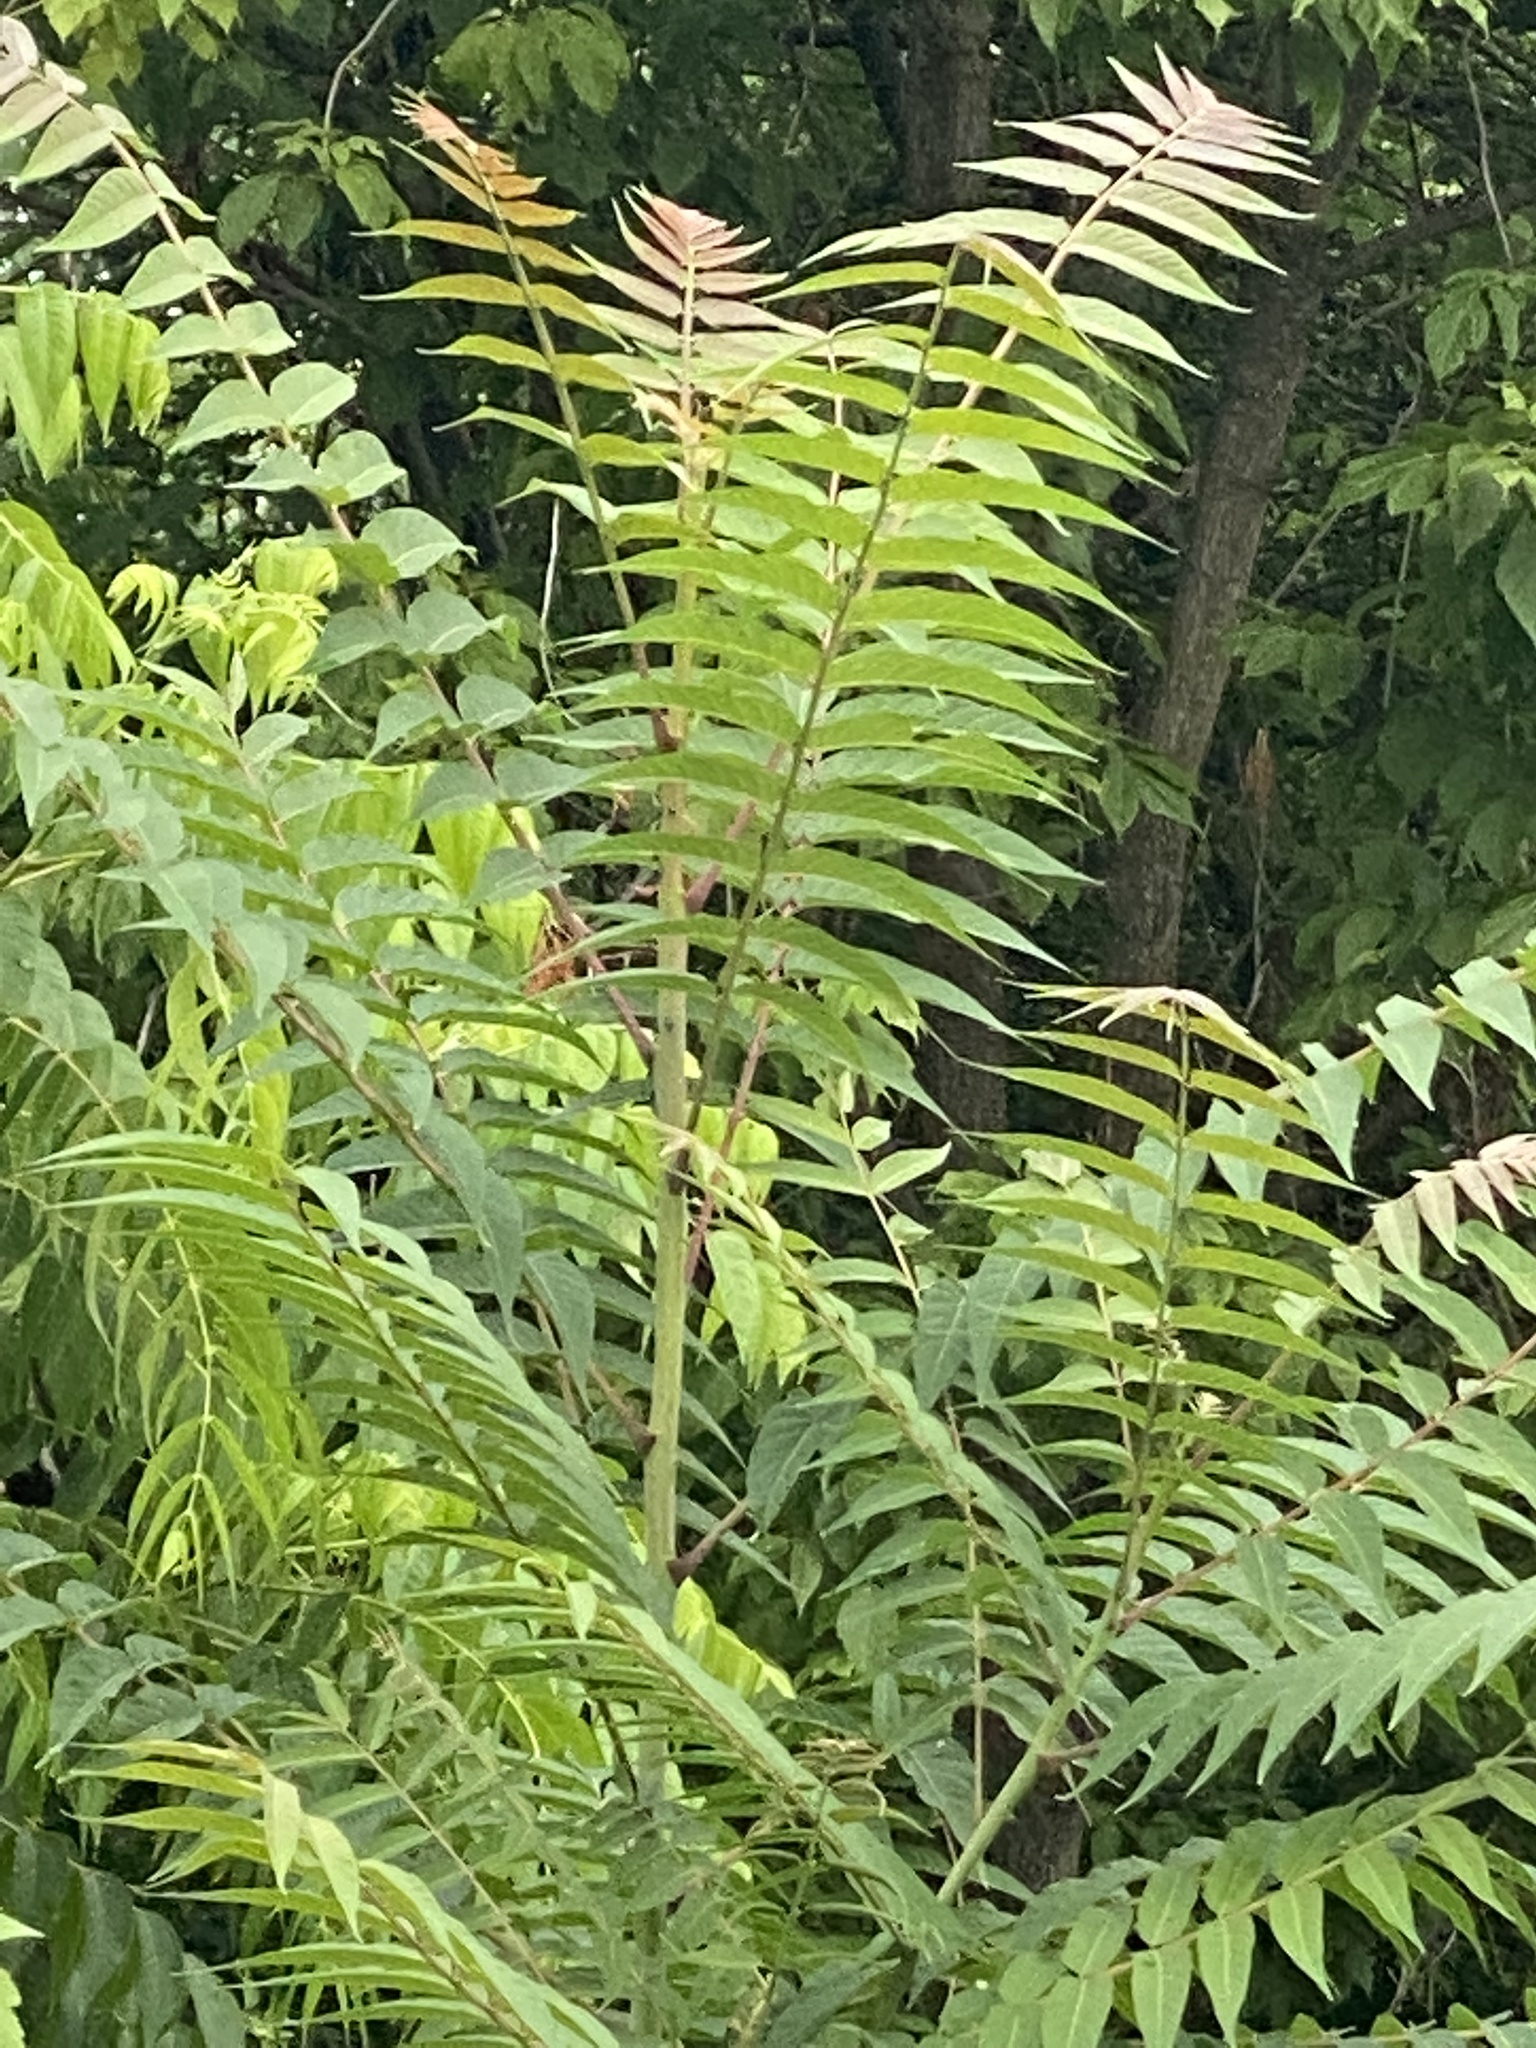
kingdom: Plantae
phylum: Tracheophyta
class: Magnoliopsida
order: Sapindales
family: Simaroubaceae
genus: Ailanthus
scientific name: Ailanthus altissima
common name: Tree-of-heaven
